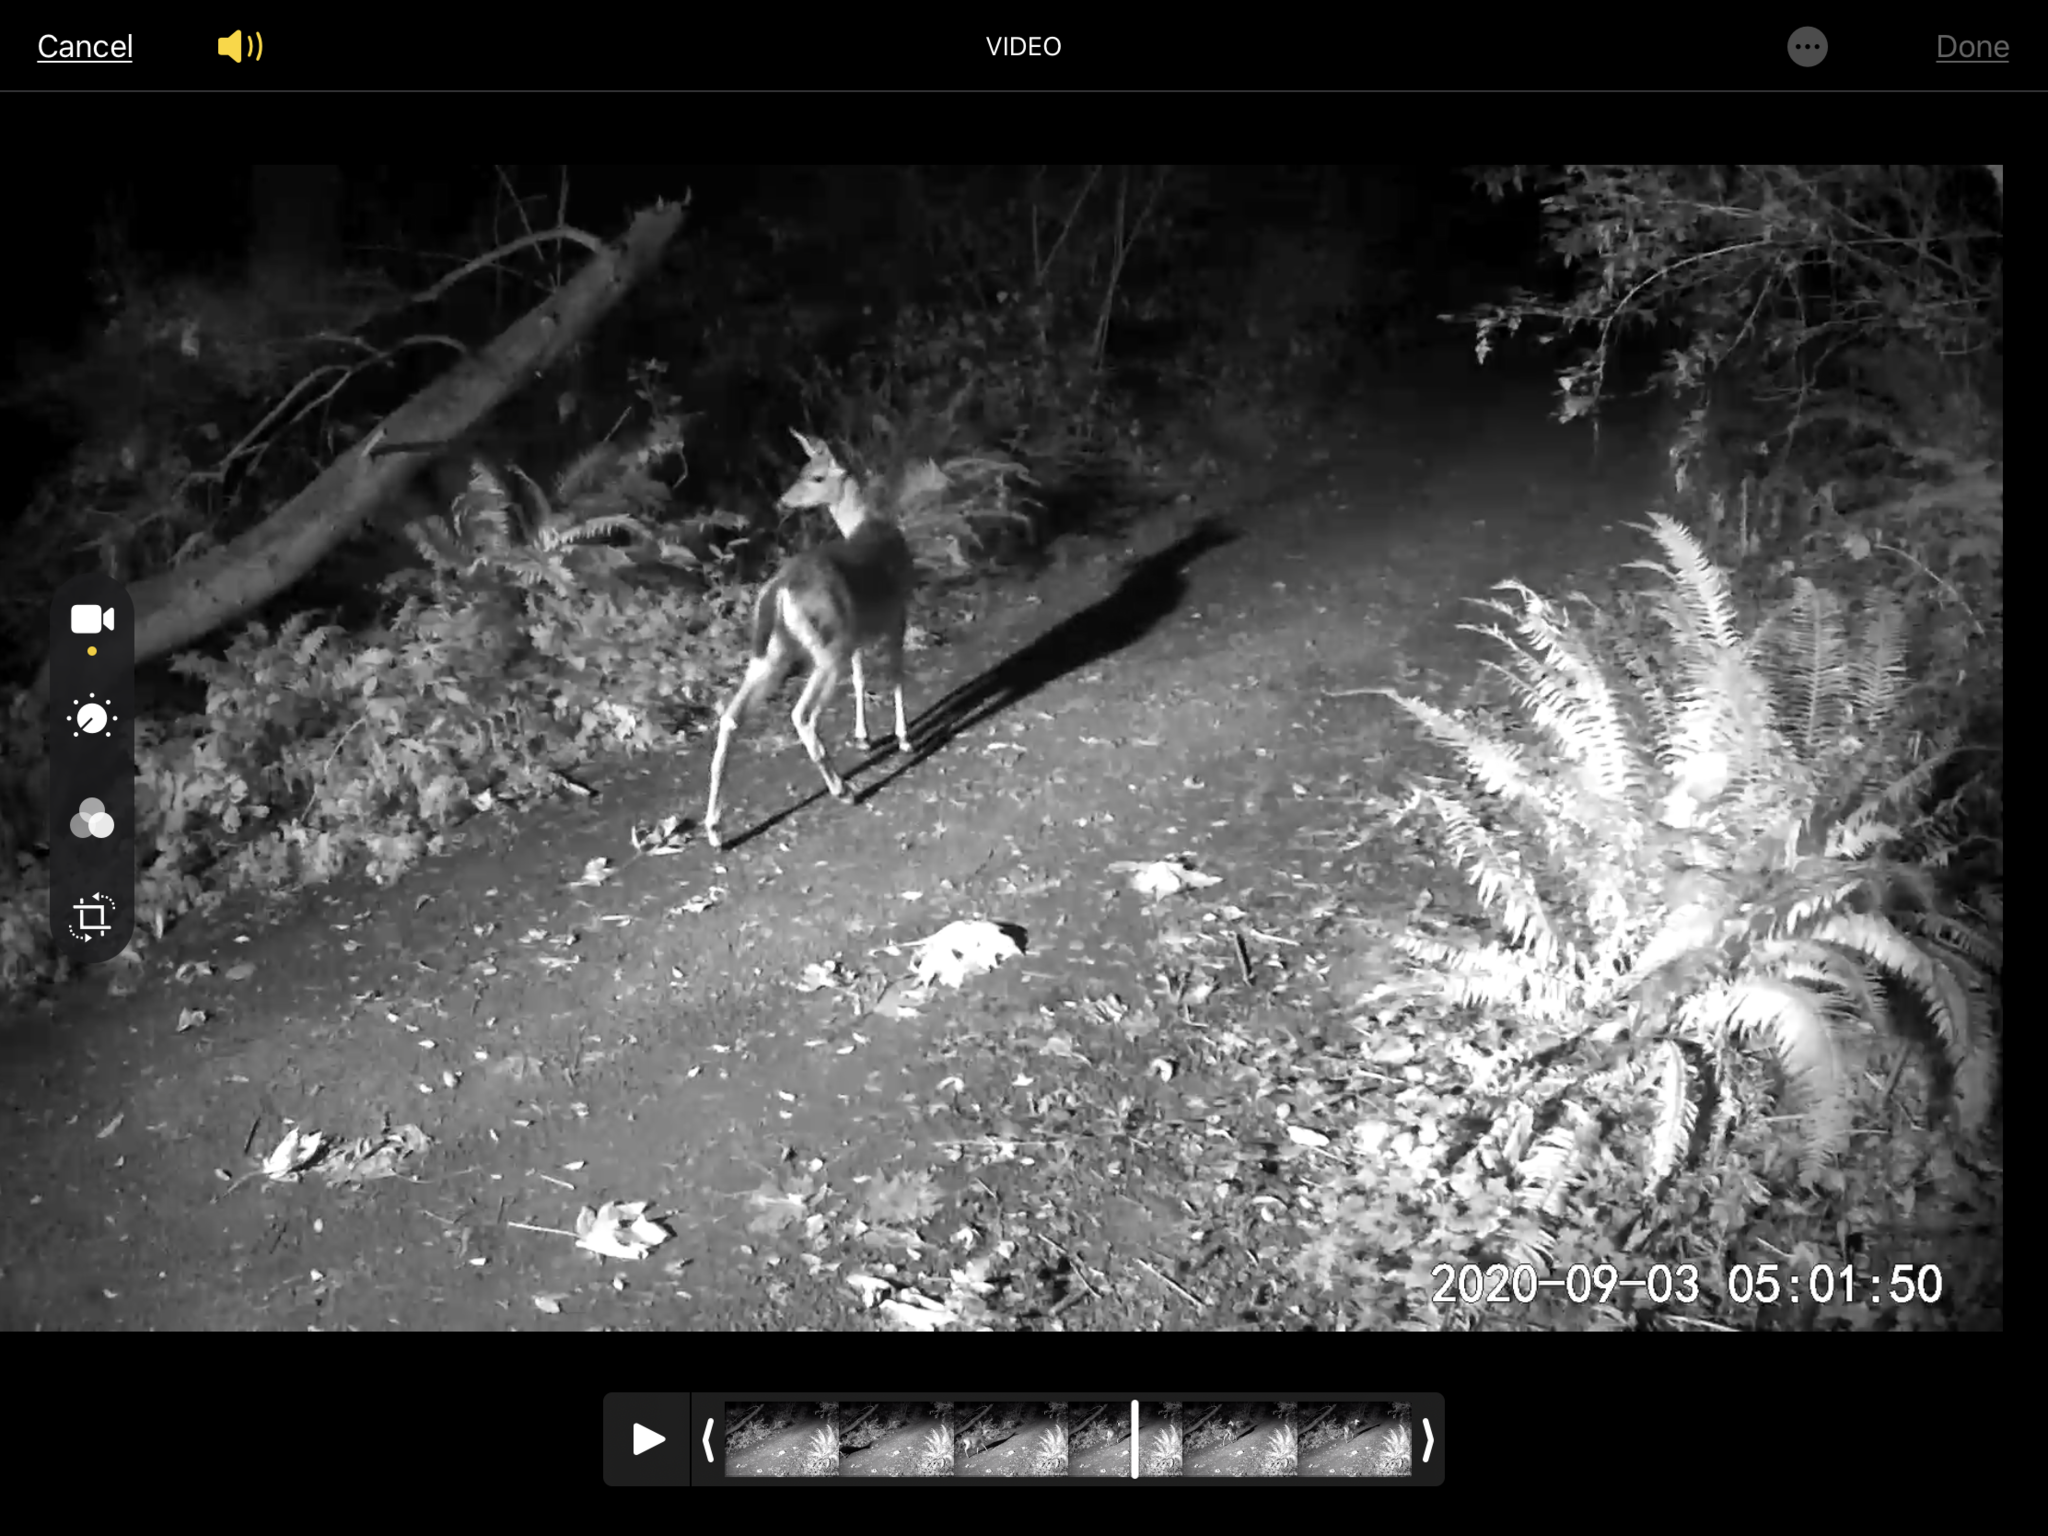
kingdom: Animalia
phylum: Chordata
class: Mammalia
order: Artiodactyla
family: Cervidae
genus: Odocoileus
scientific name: Odocoileus hemionus
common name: Mule deer
